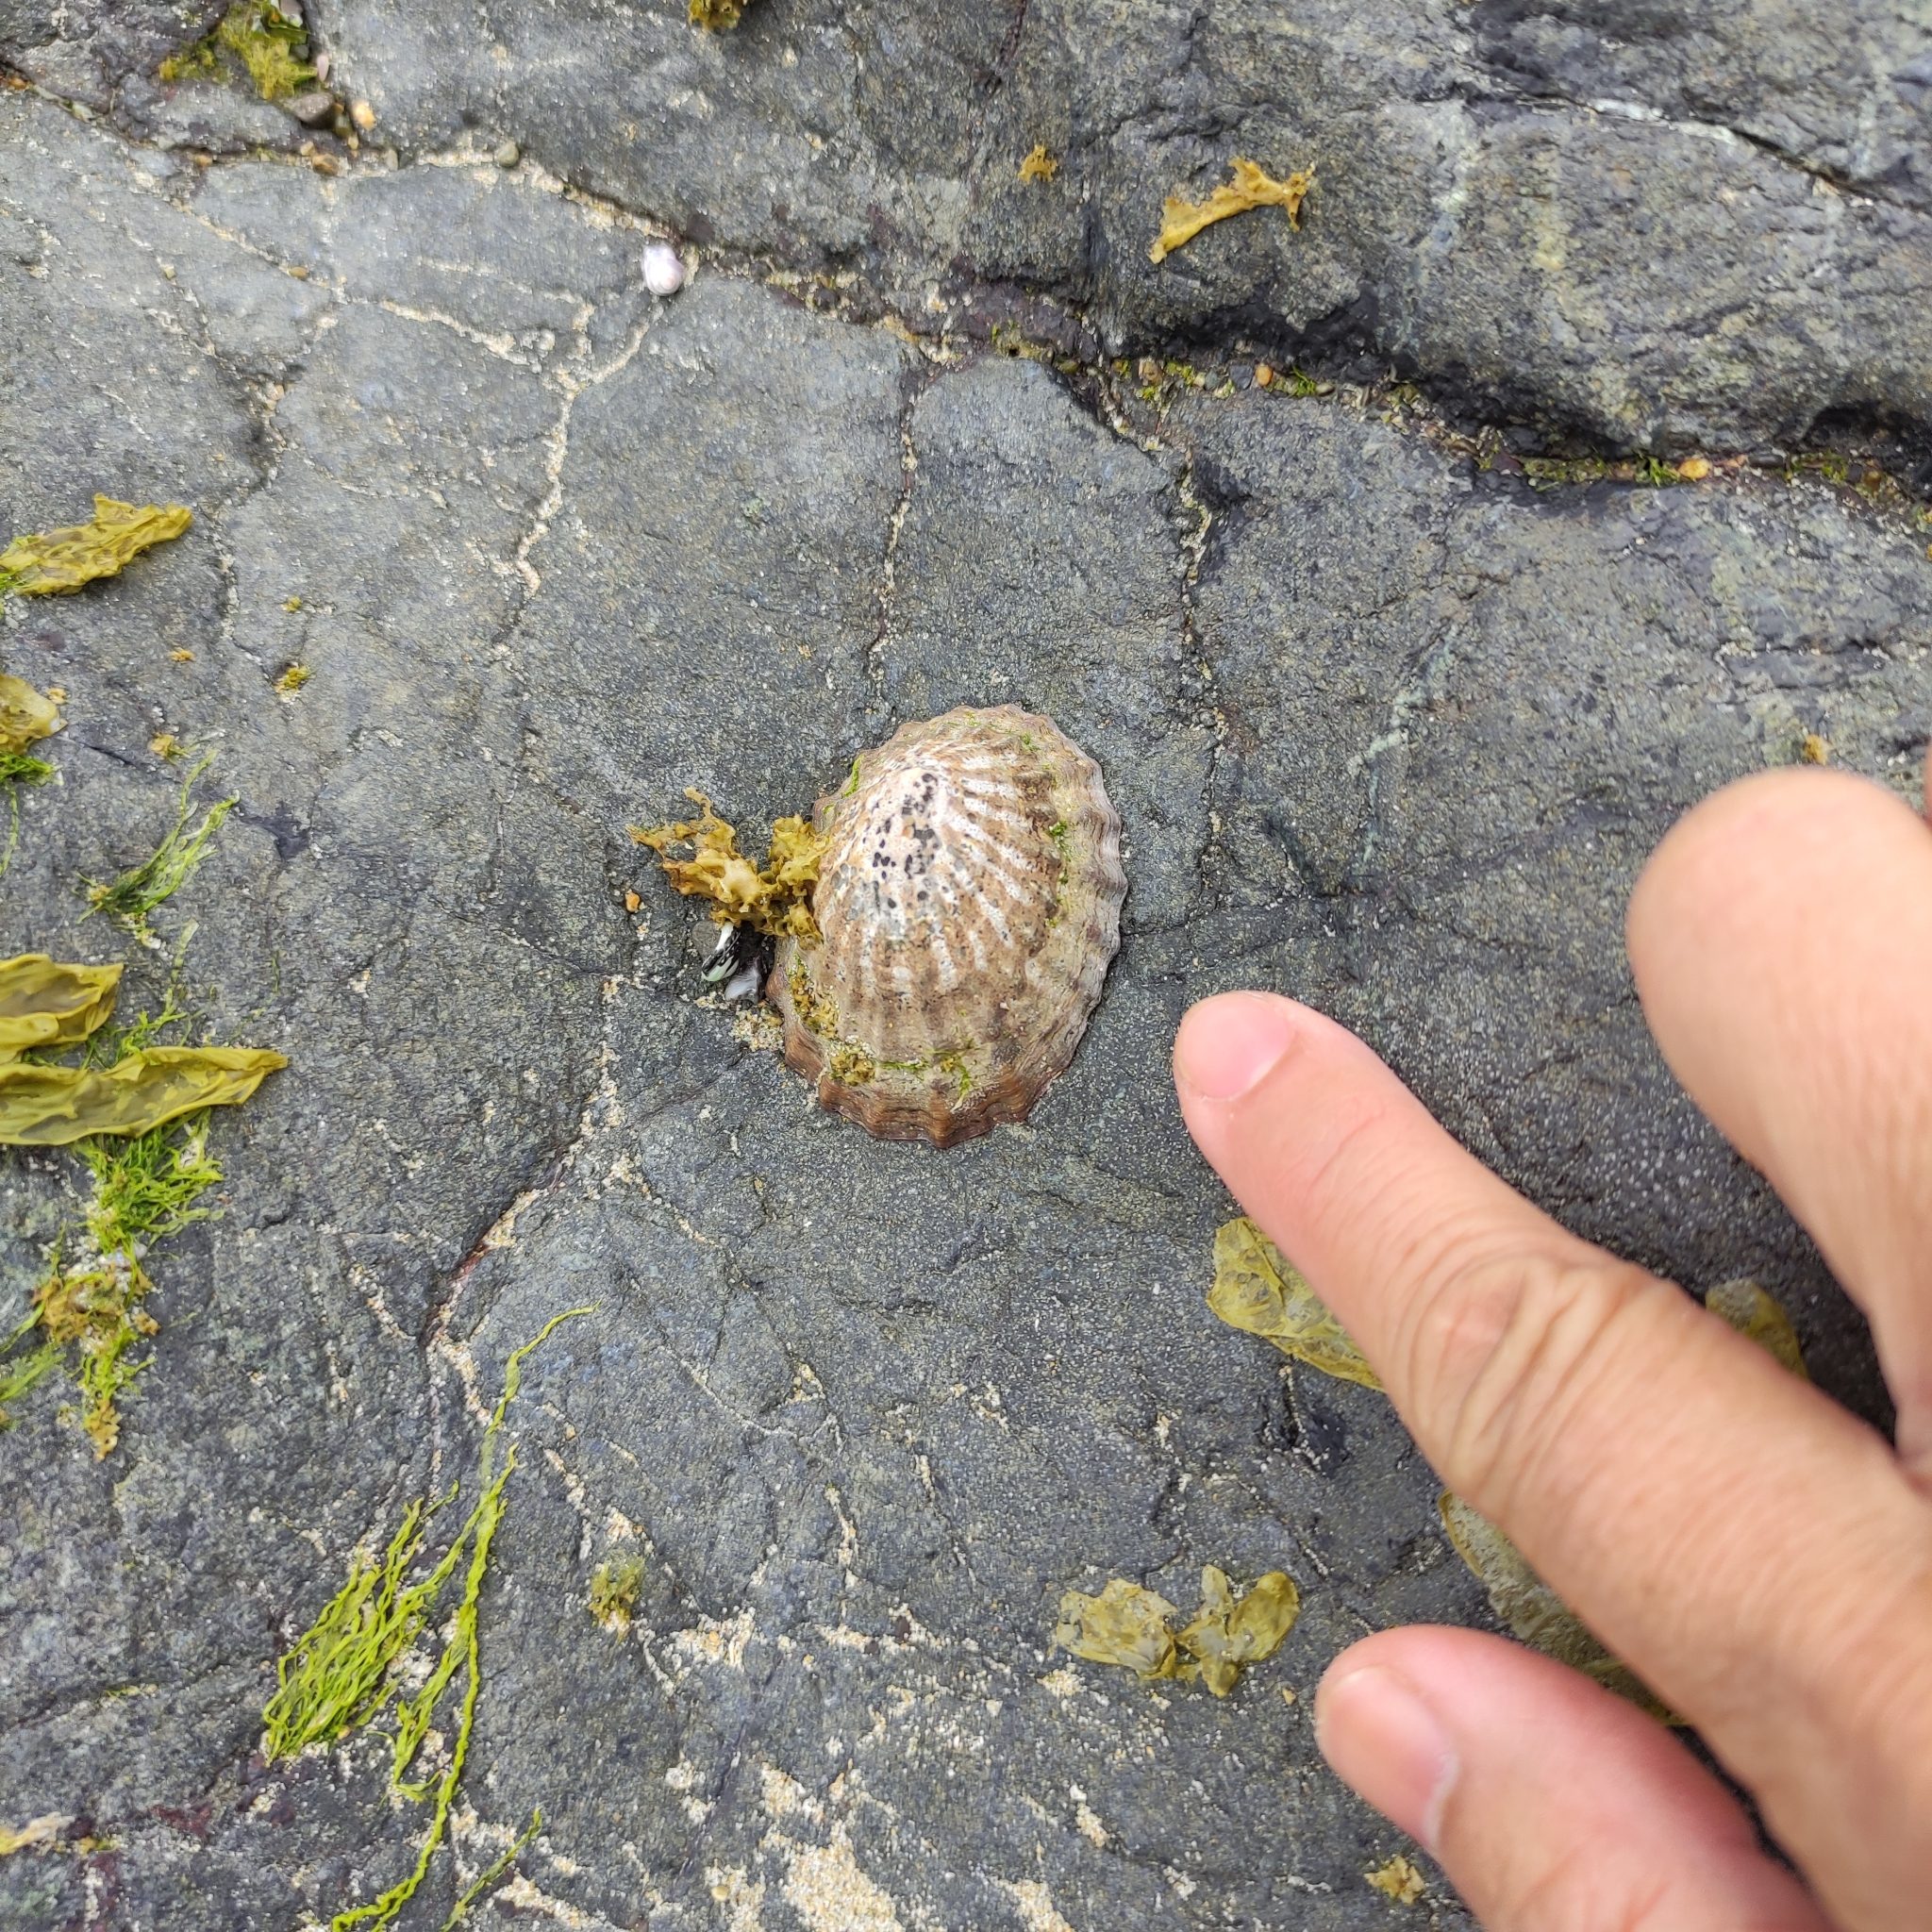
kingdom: Animalia
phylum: Mollusca
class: Gastropoda
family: Nacellidae
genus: Cellana
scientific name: Cellana strigilis
